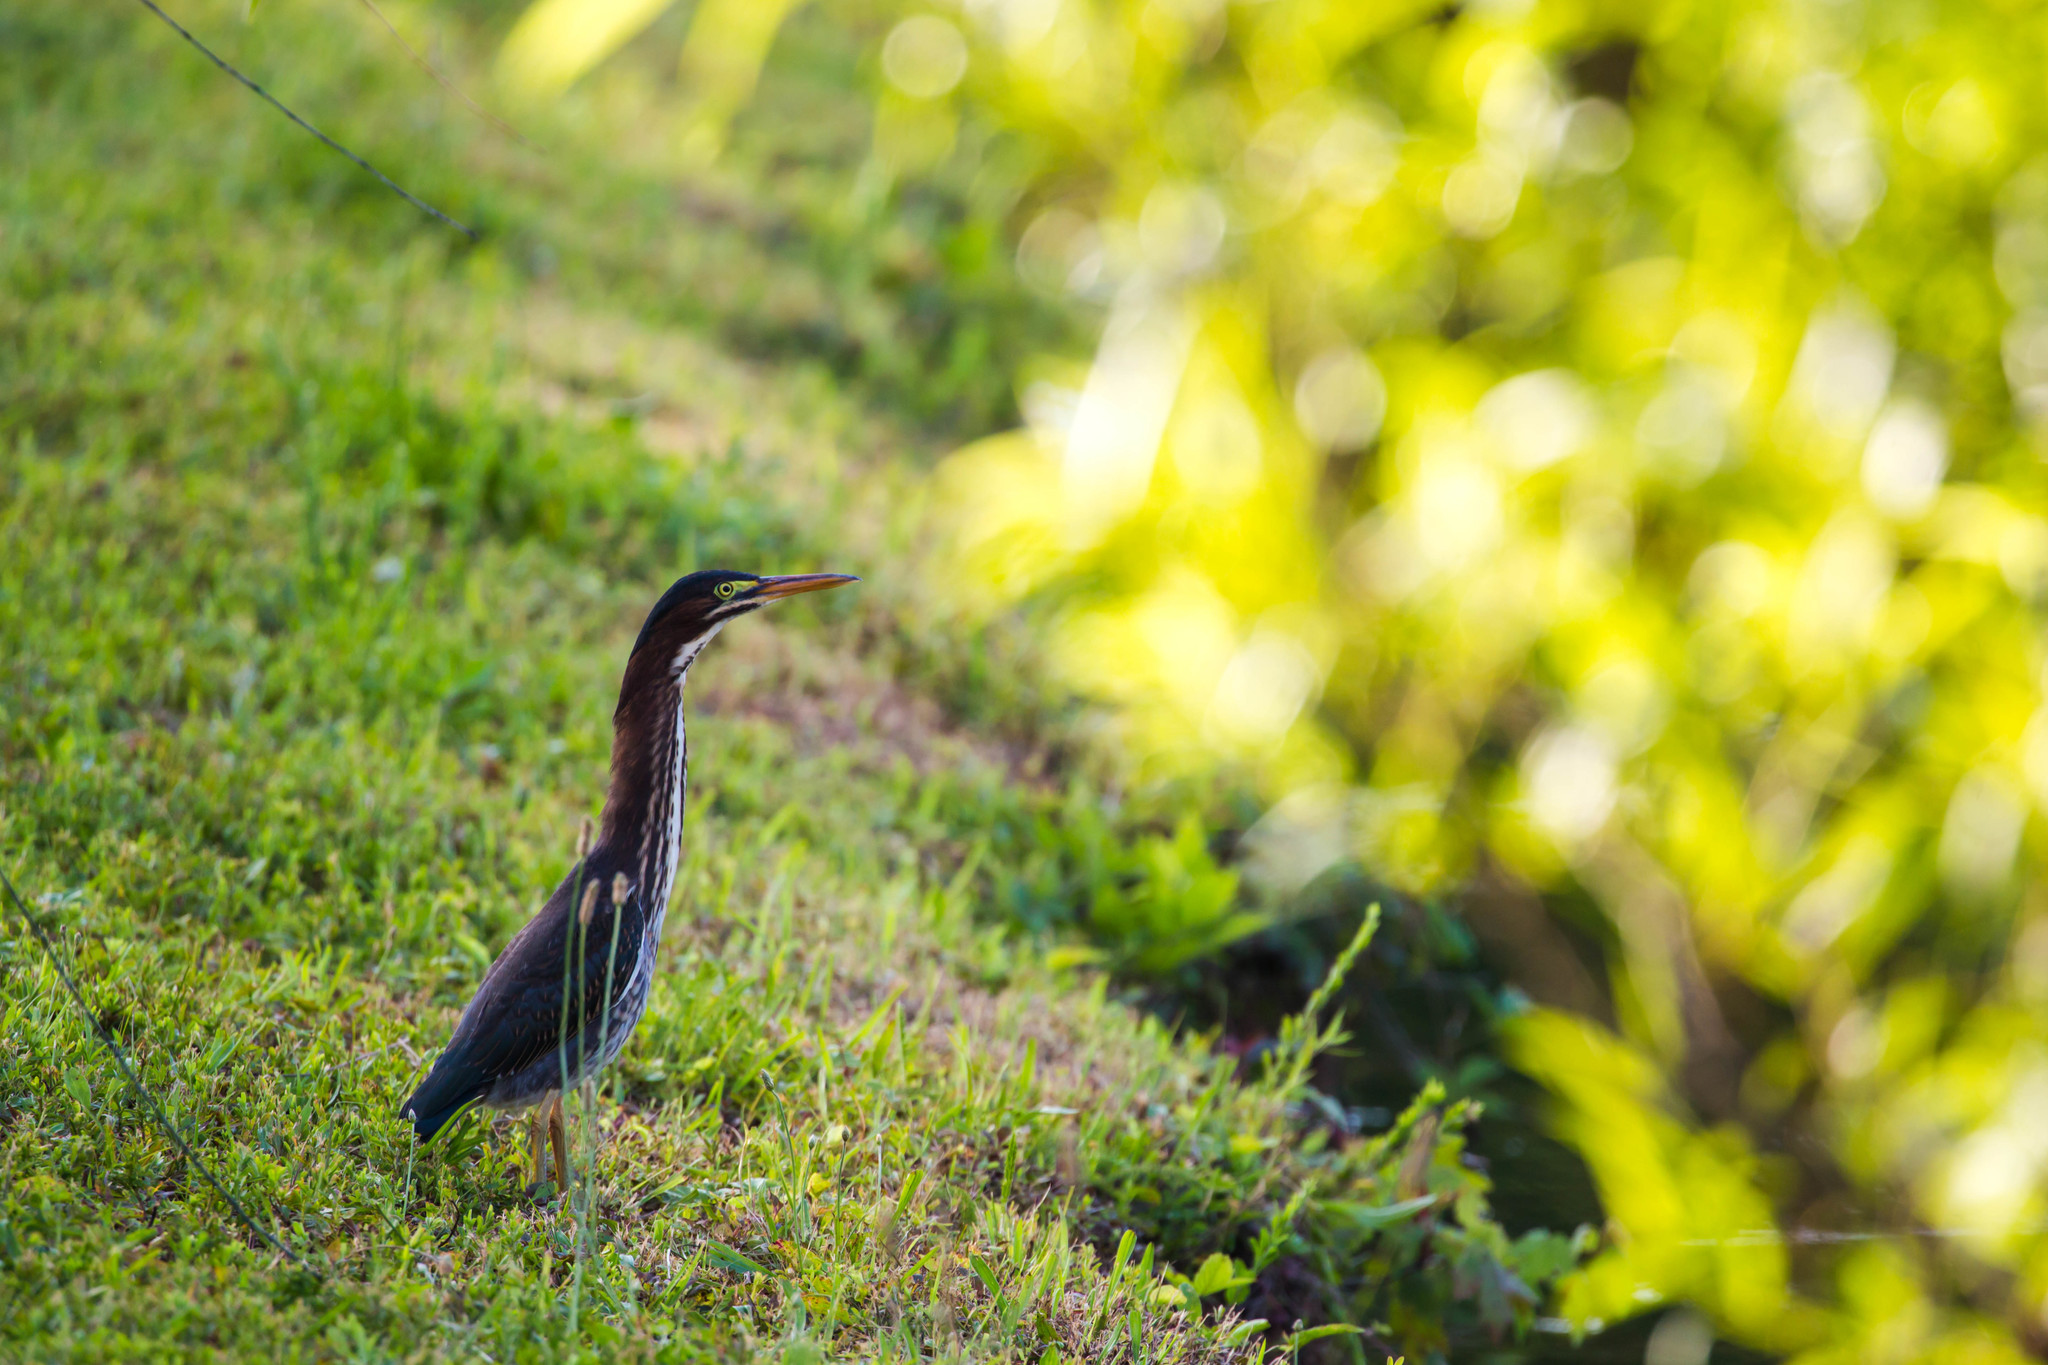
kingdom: Animalia
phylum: Chordata
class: Aves
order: Pelecaniformes
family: Ardeidae
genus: Butorides
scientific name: Butorides virescens
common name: Green heron
